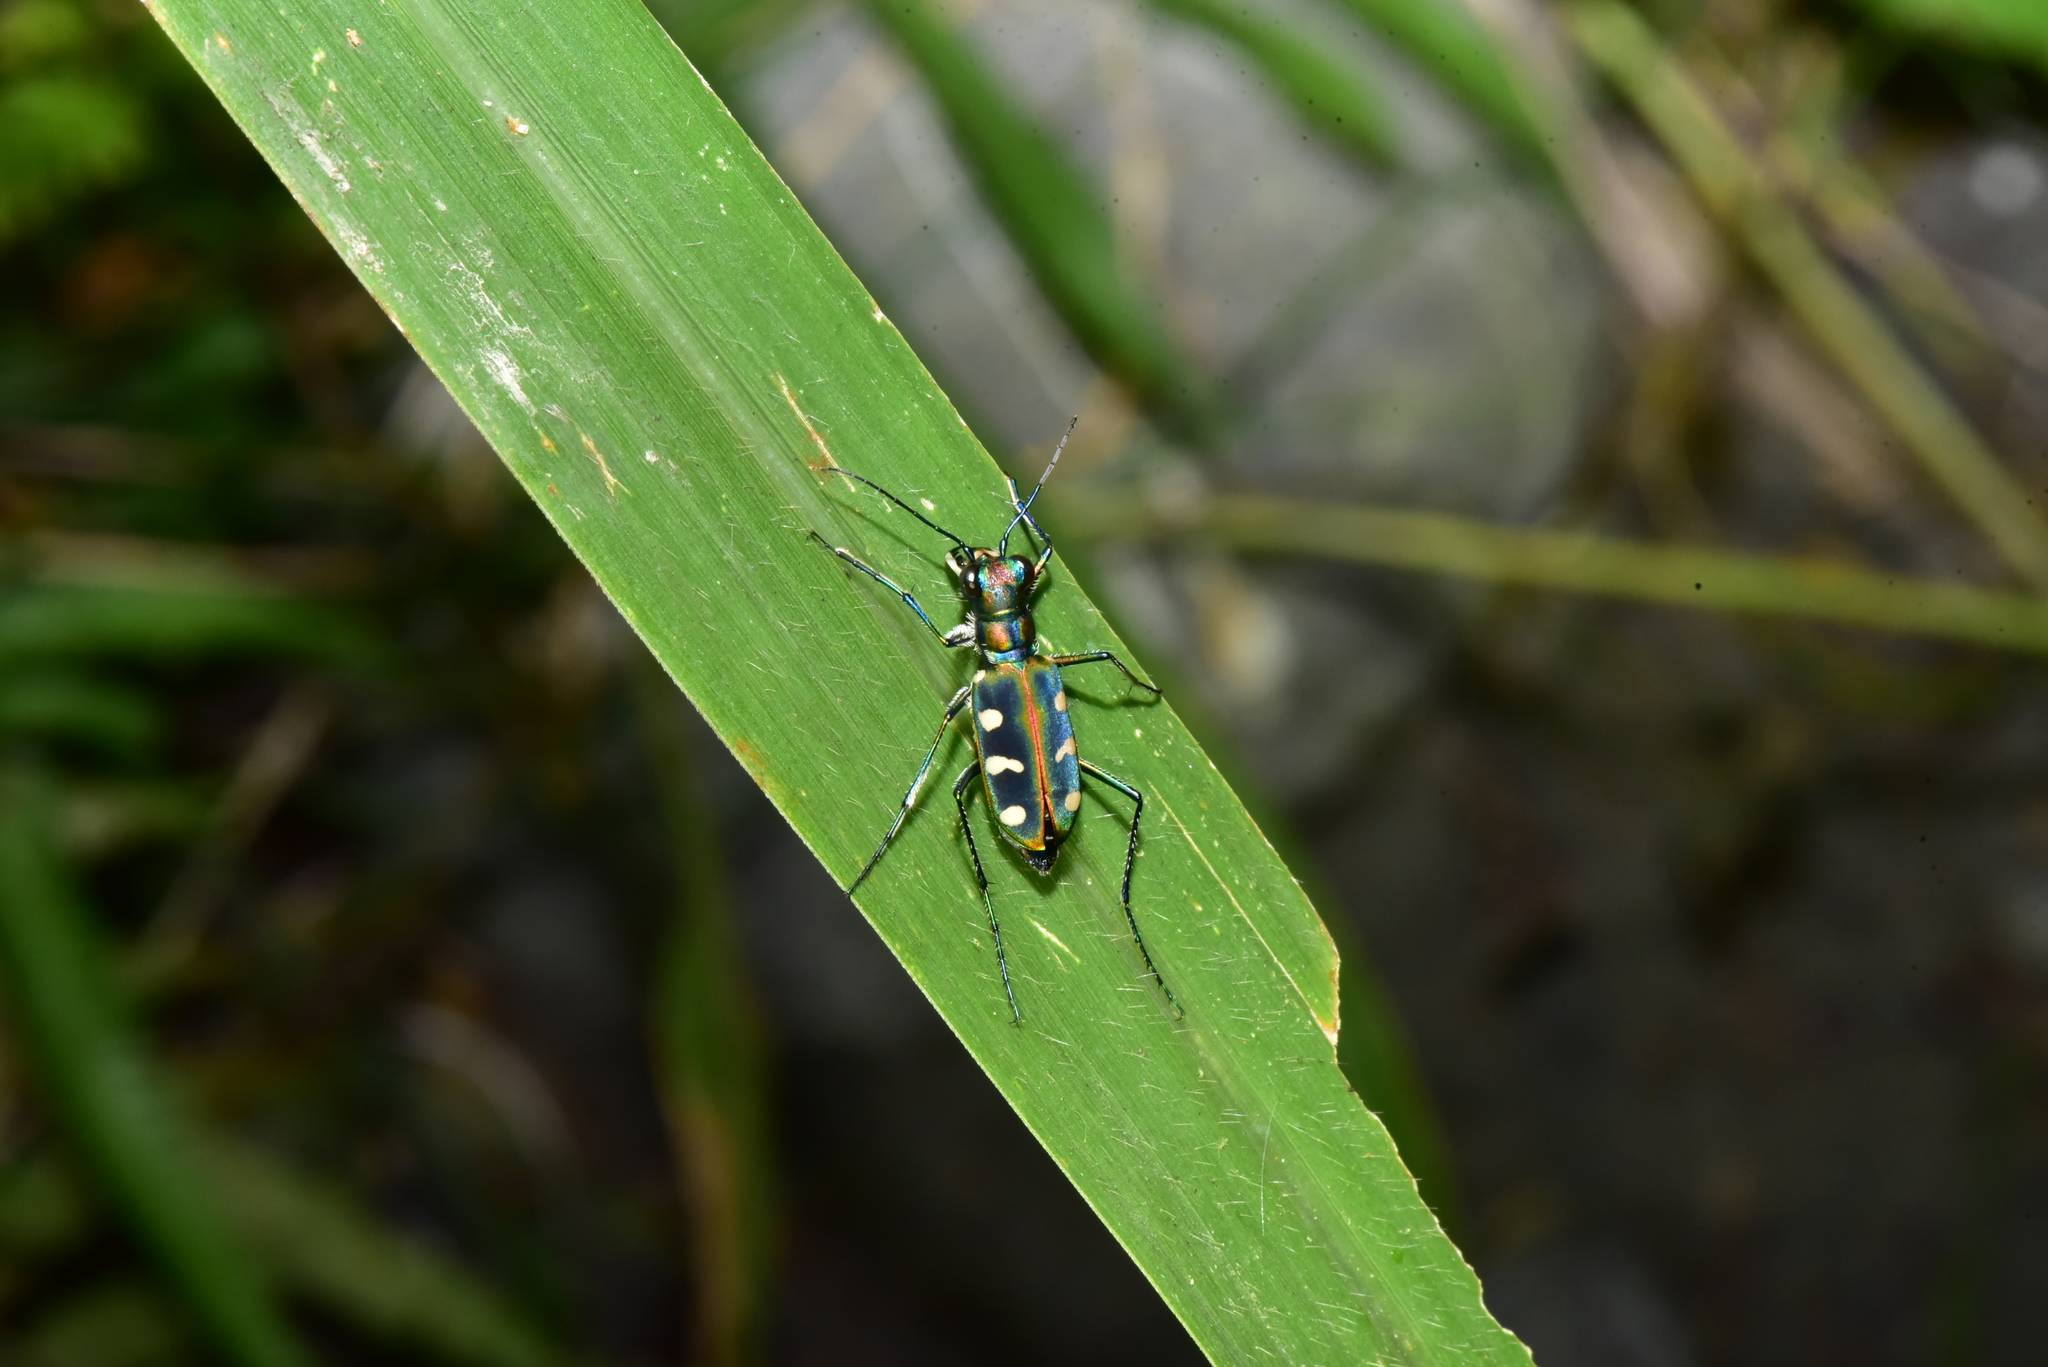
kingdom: Animalia
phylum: Arthropoda
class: Insecta
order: Coleoptera
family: Carabidae
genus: Cicindela
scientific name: Cicindela batesi
